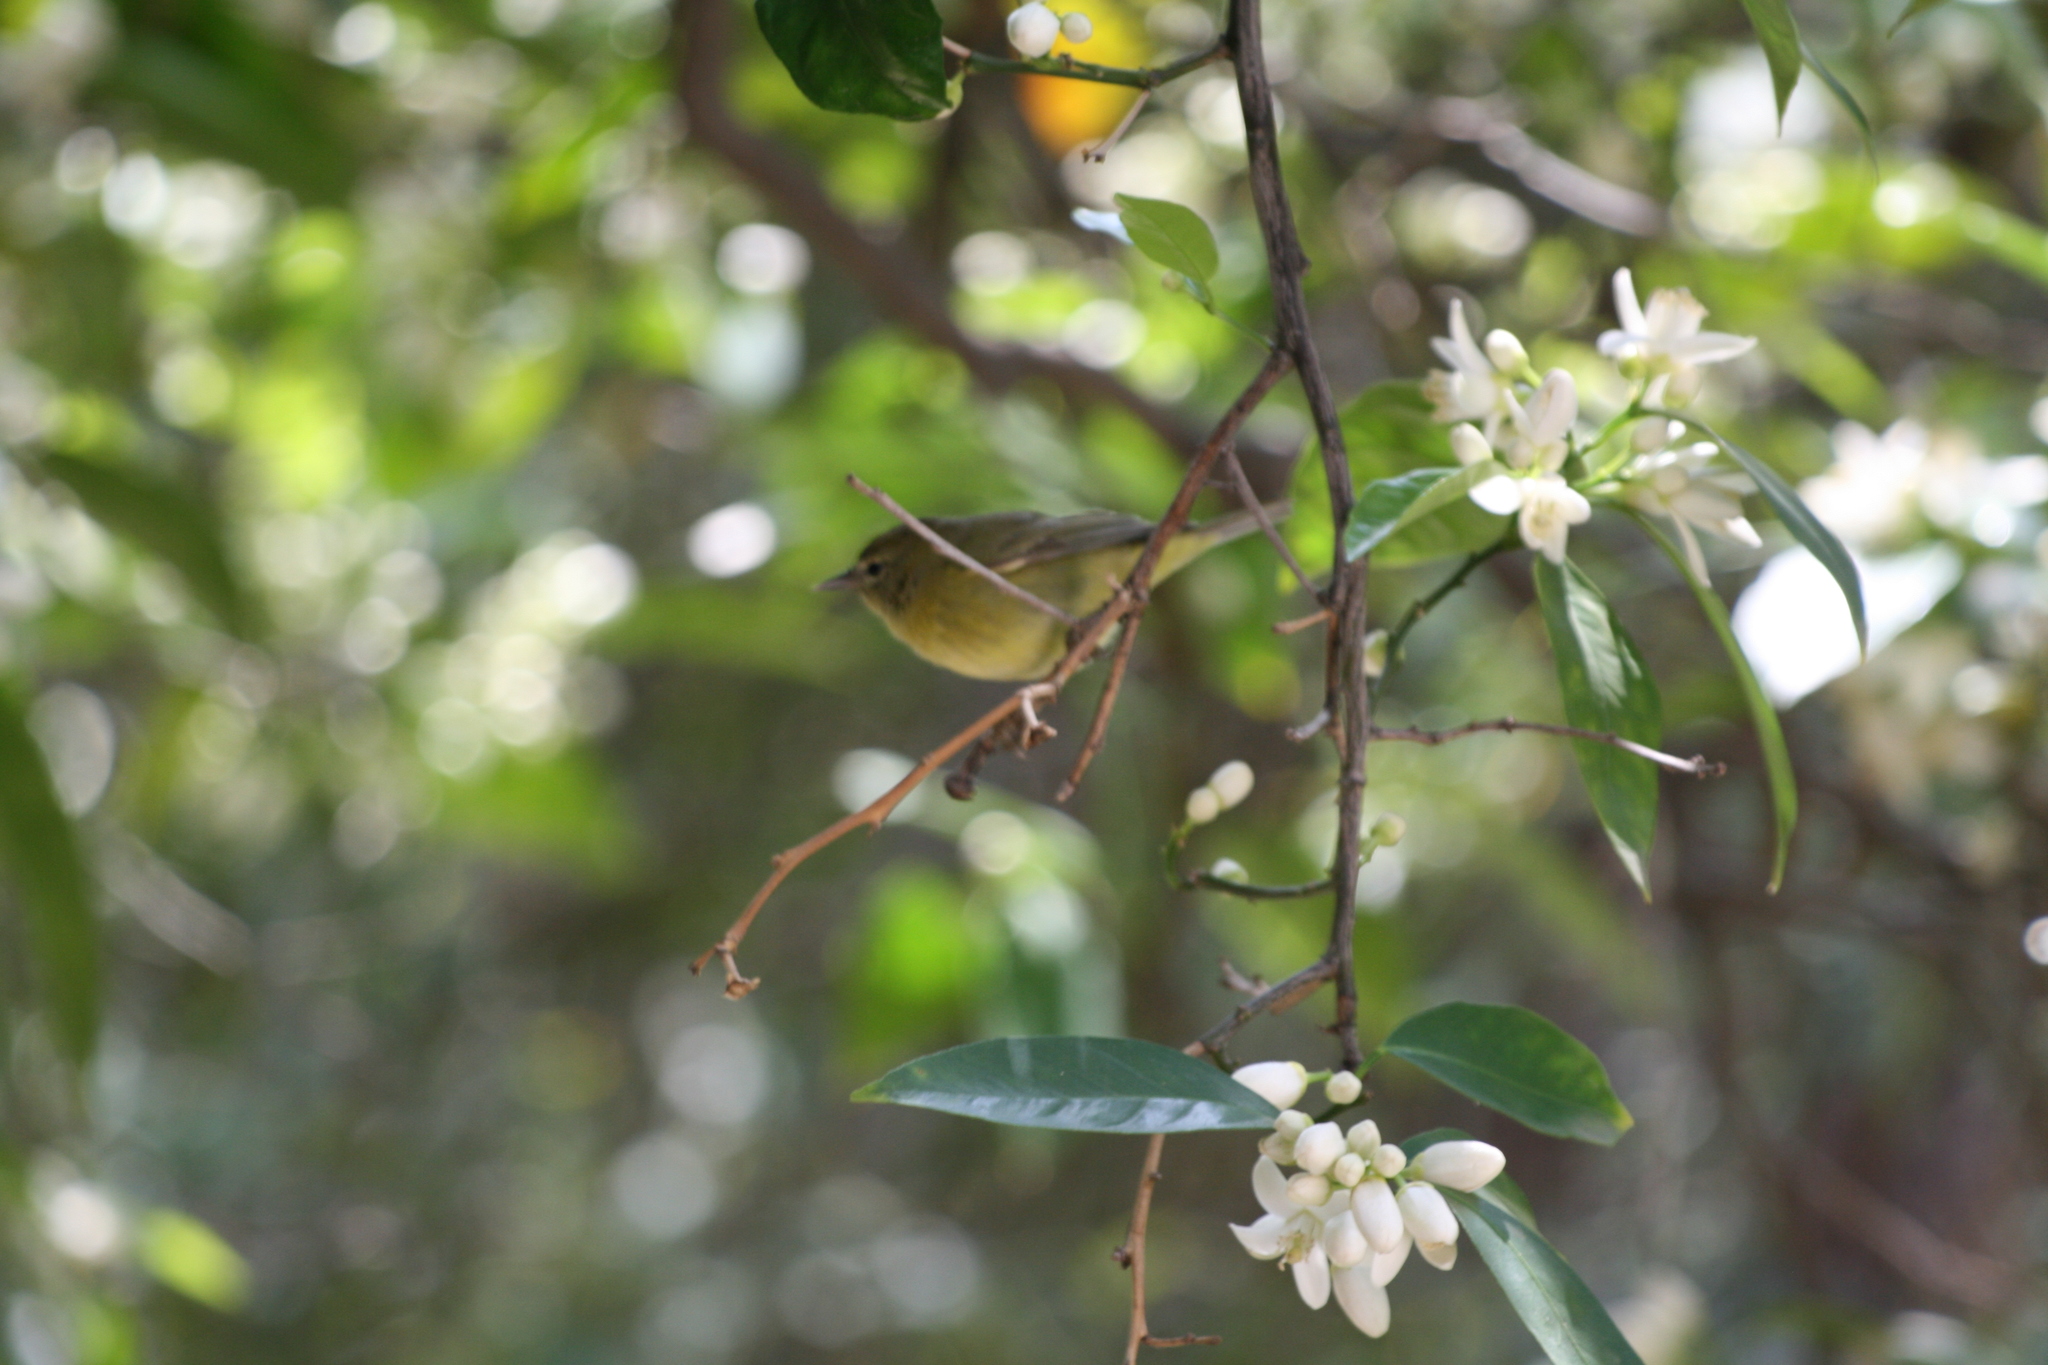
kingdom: Animalia
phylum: Chordata
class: Aves
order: Passeriformes
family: Parulidae
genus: Leiothlypis
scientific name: Leiothlypis celata
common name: Orange-crowned warbler
